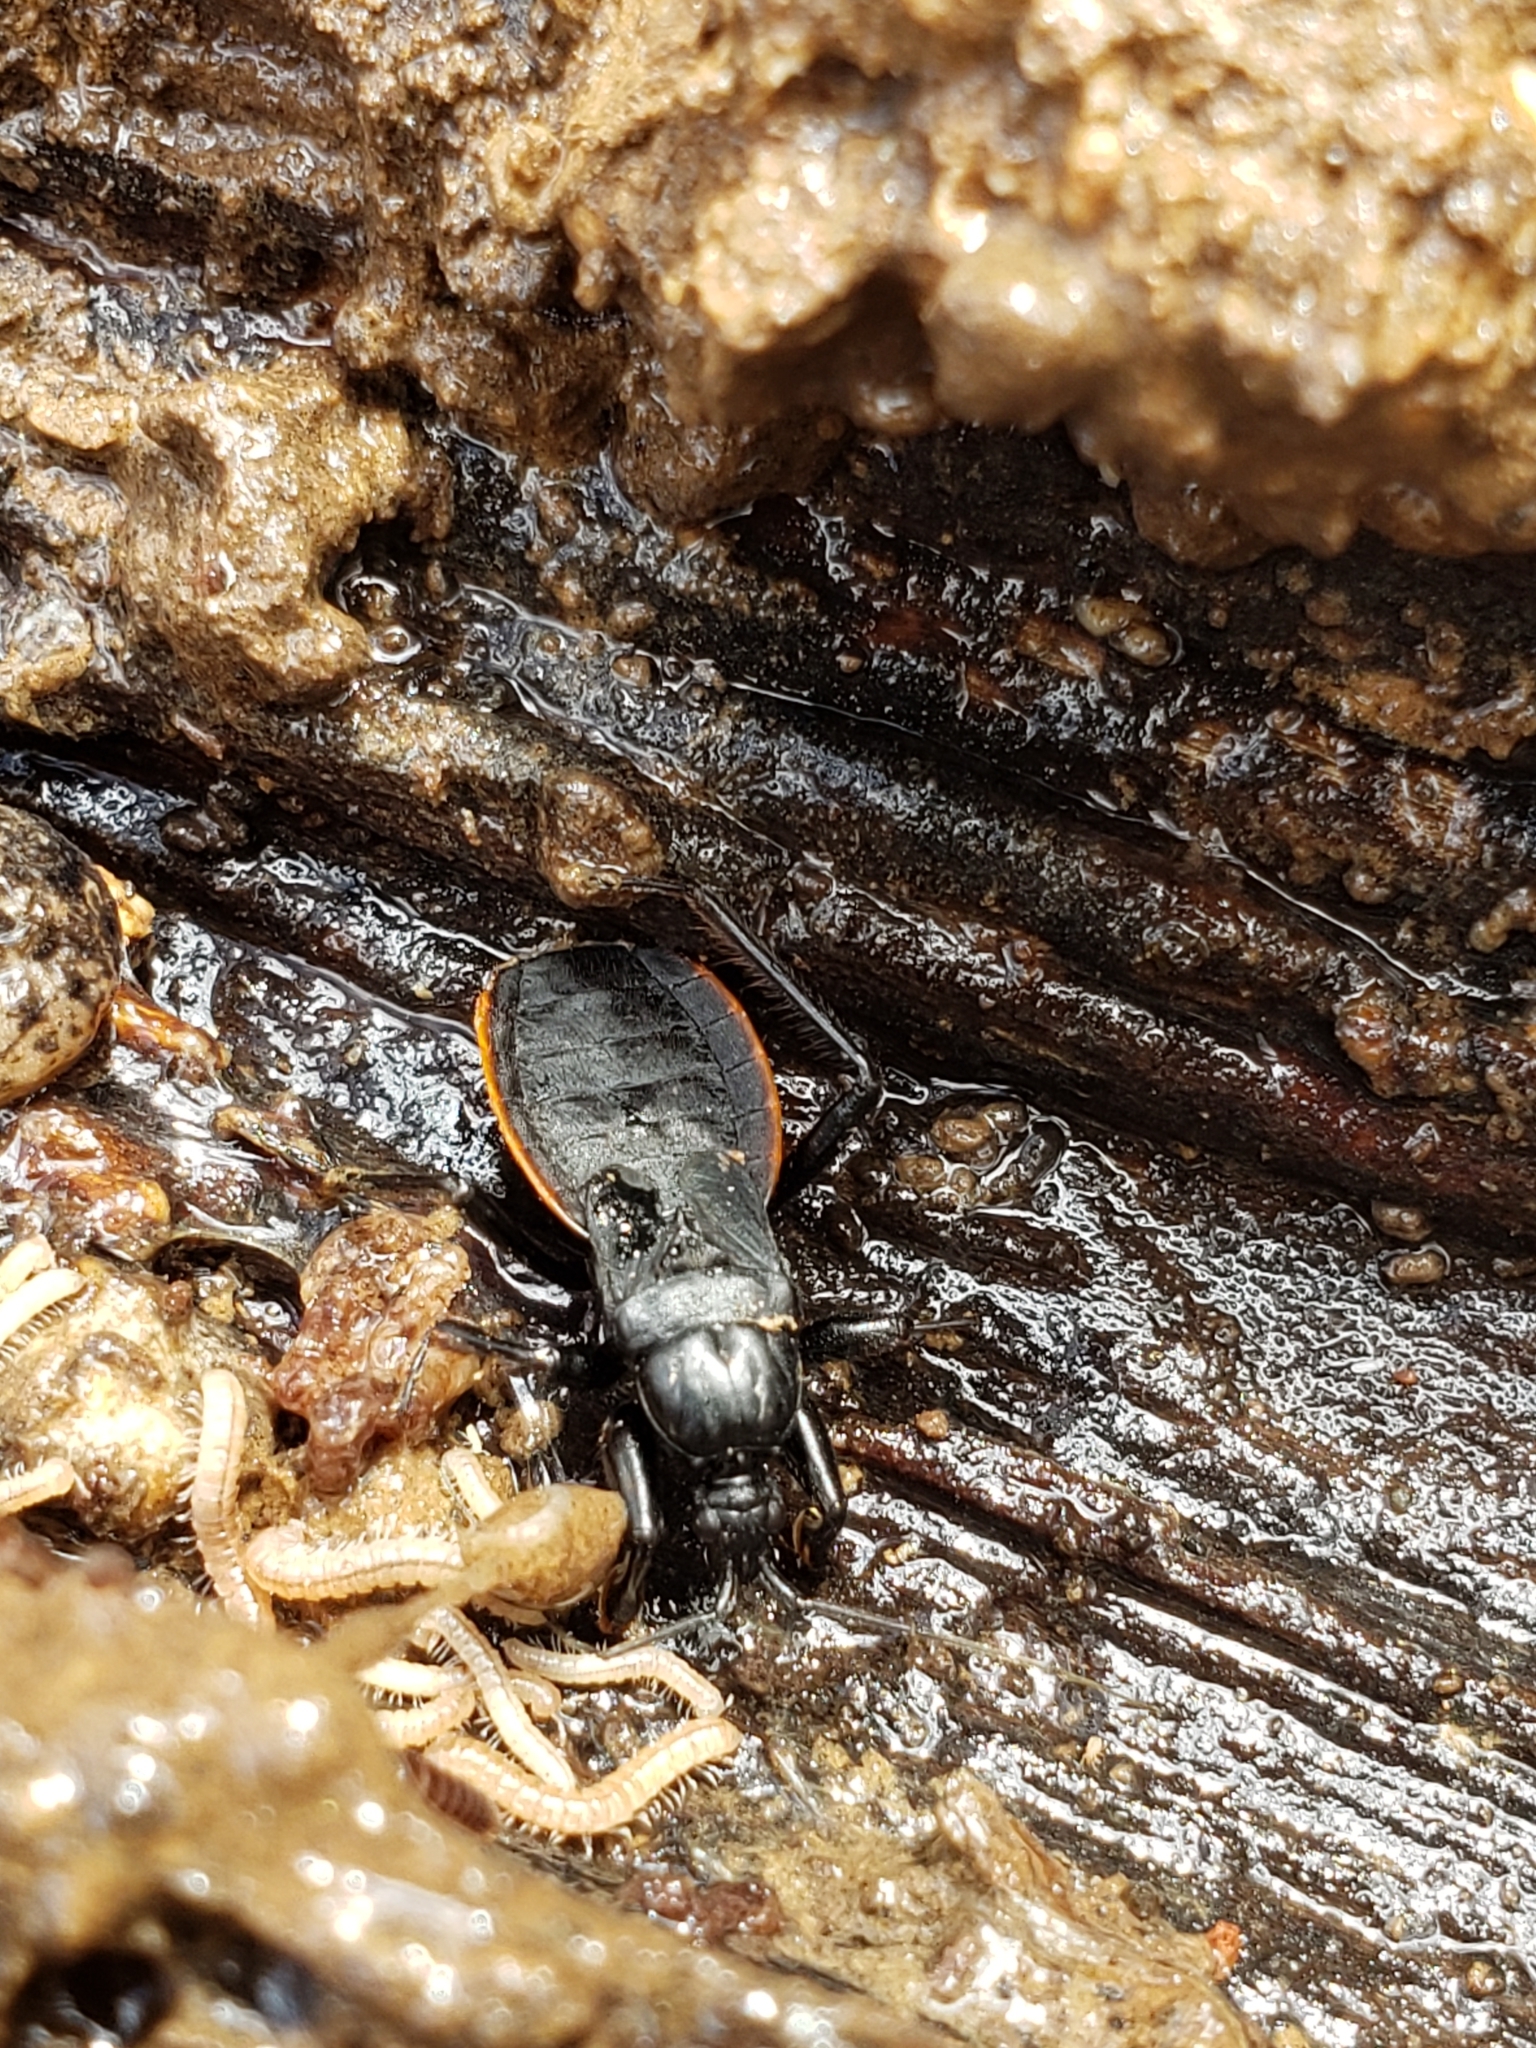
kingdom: Animalia
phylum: Arthropoda
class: Insecta
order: Hemiptera
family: Reduviidae
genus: Melanolestes
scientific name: Melanolestes picipes
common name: Assassin bug
